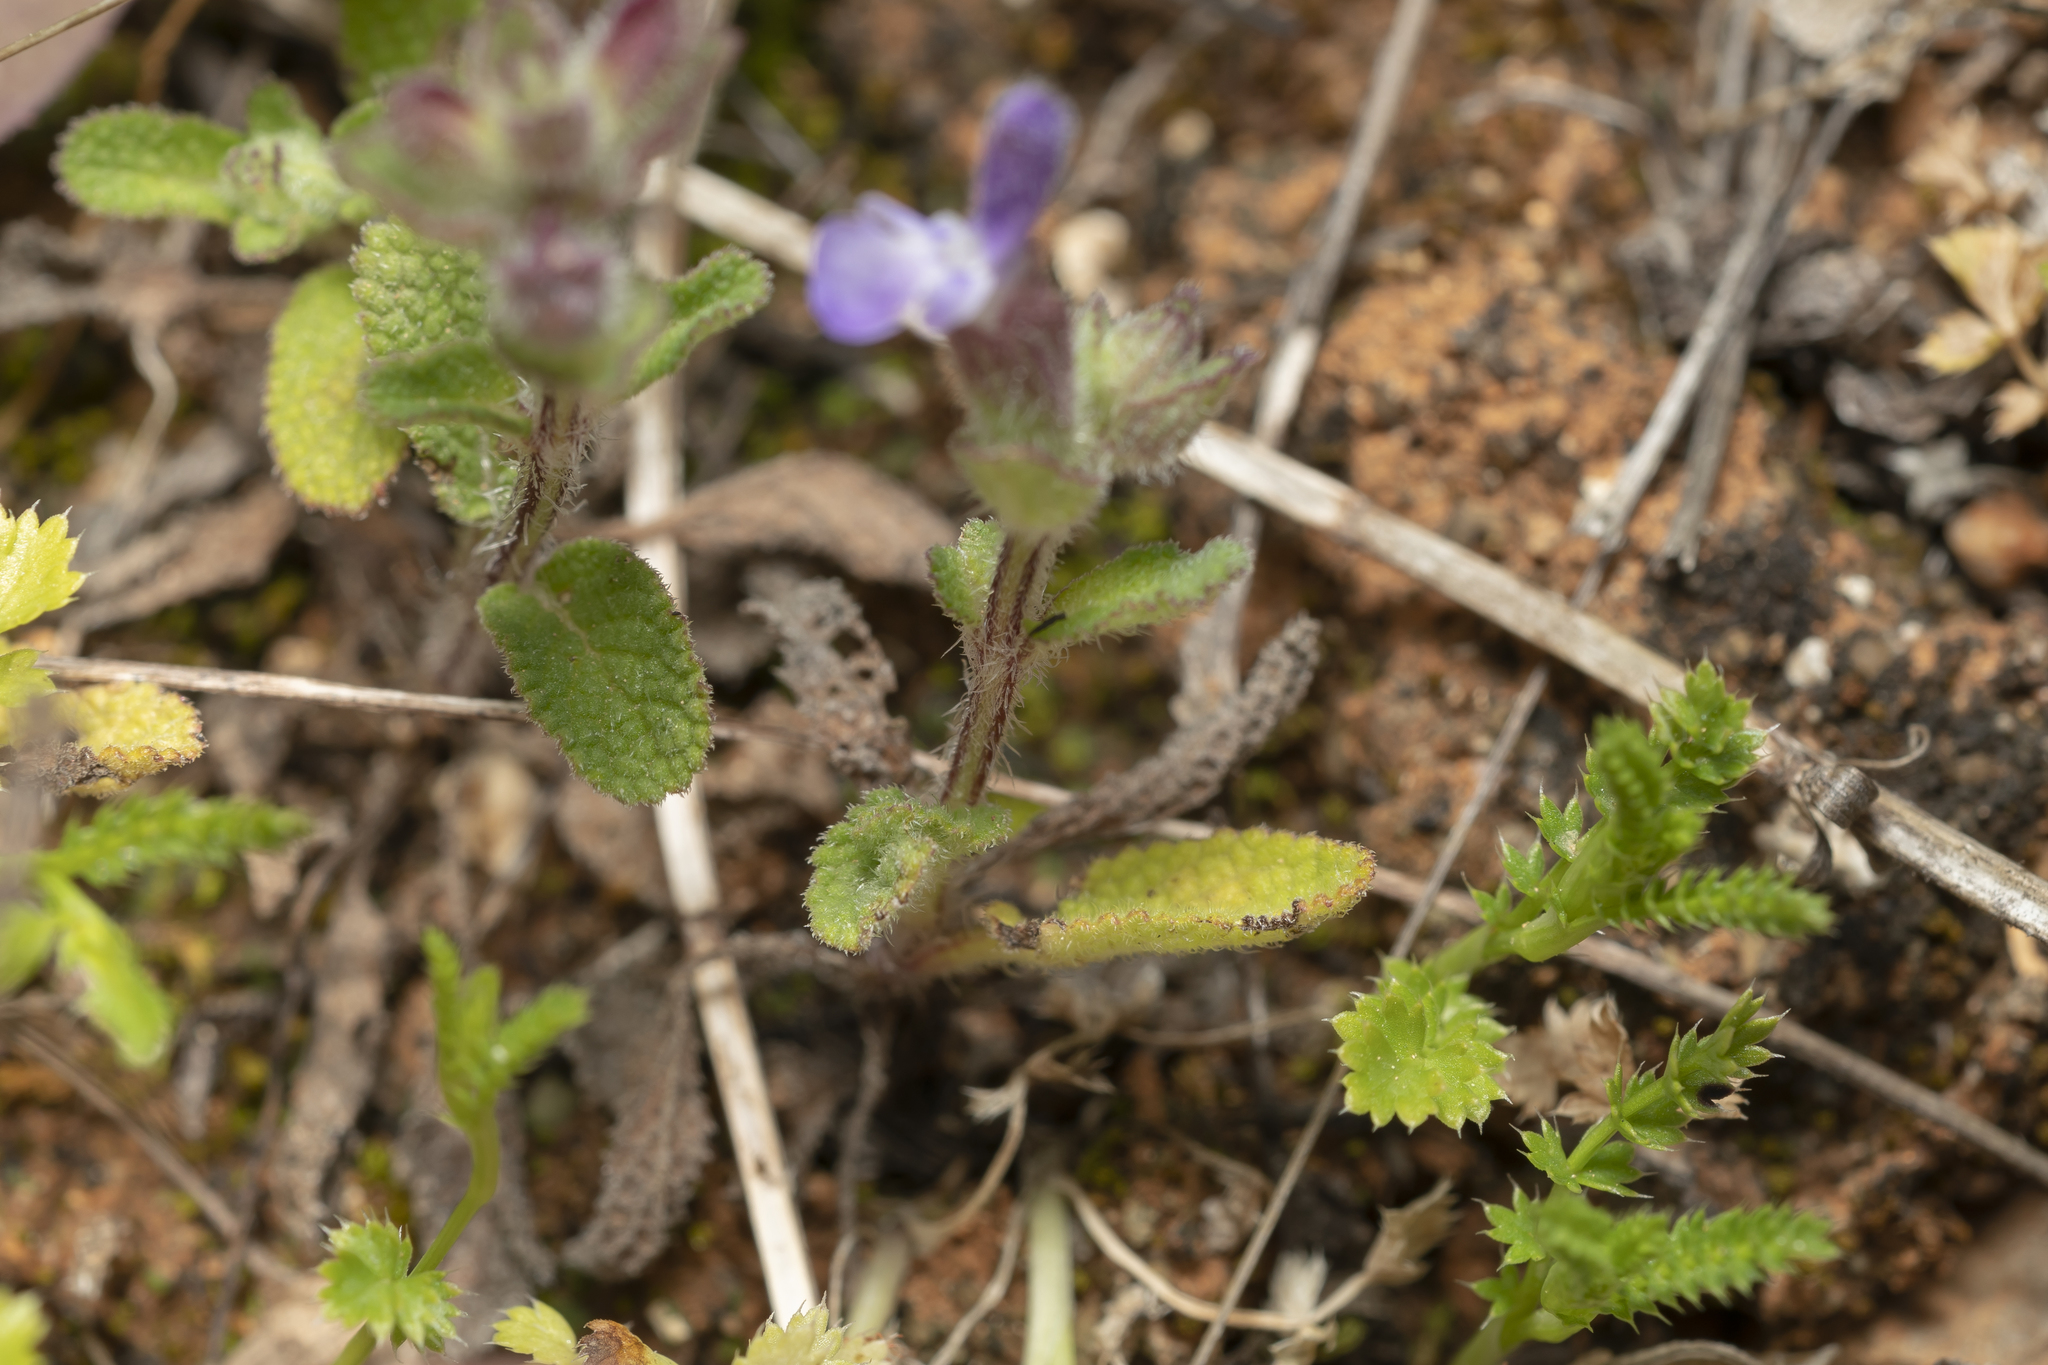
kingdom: Plantae
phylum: Tracheophyta
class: Magnoliopsida
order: Lamiales
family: Lamiaceae
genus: Salvia
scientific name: Salvia viridis
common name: Annual clary
